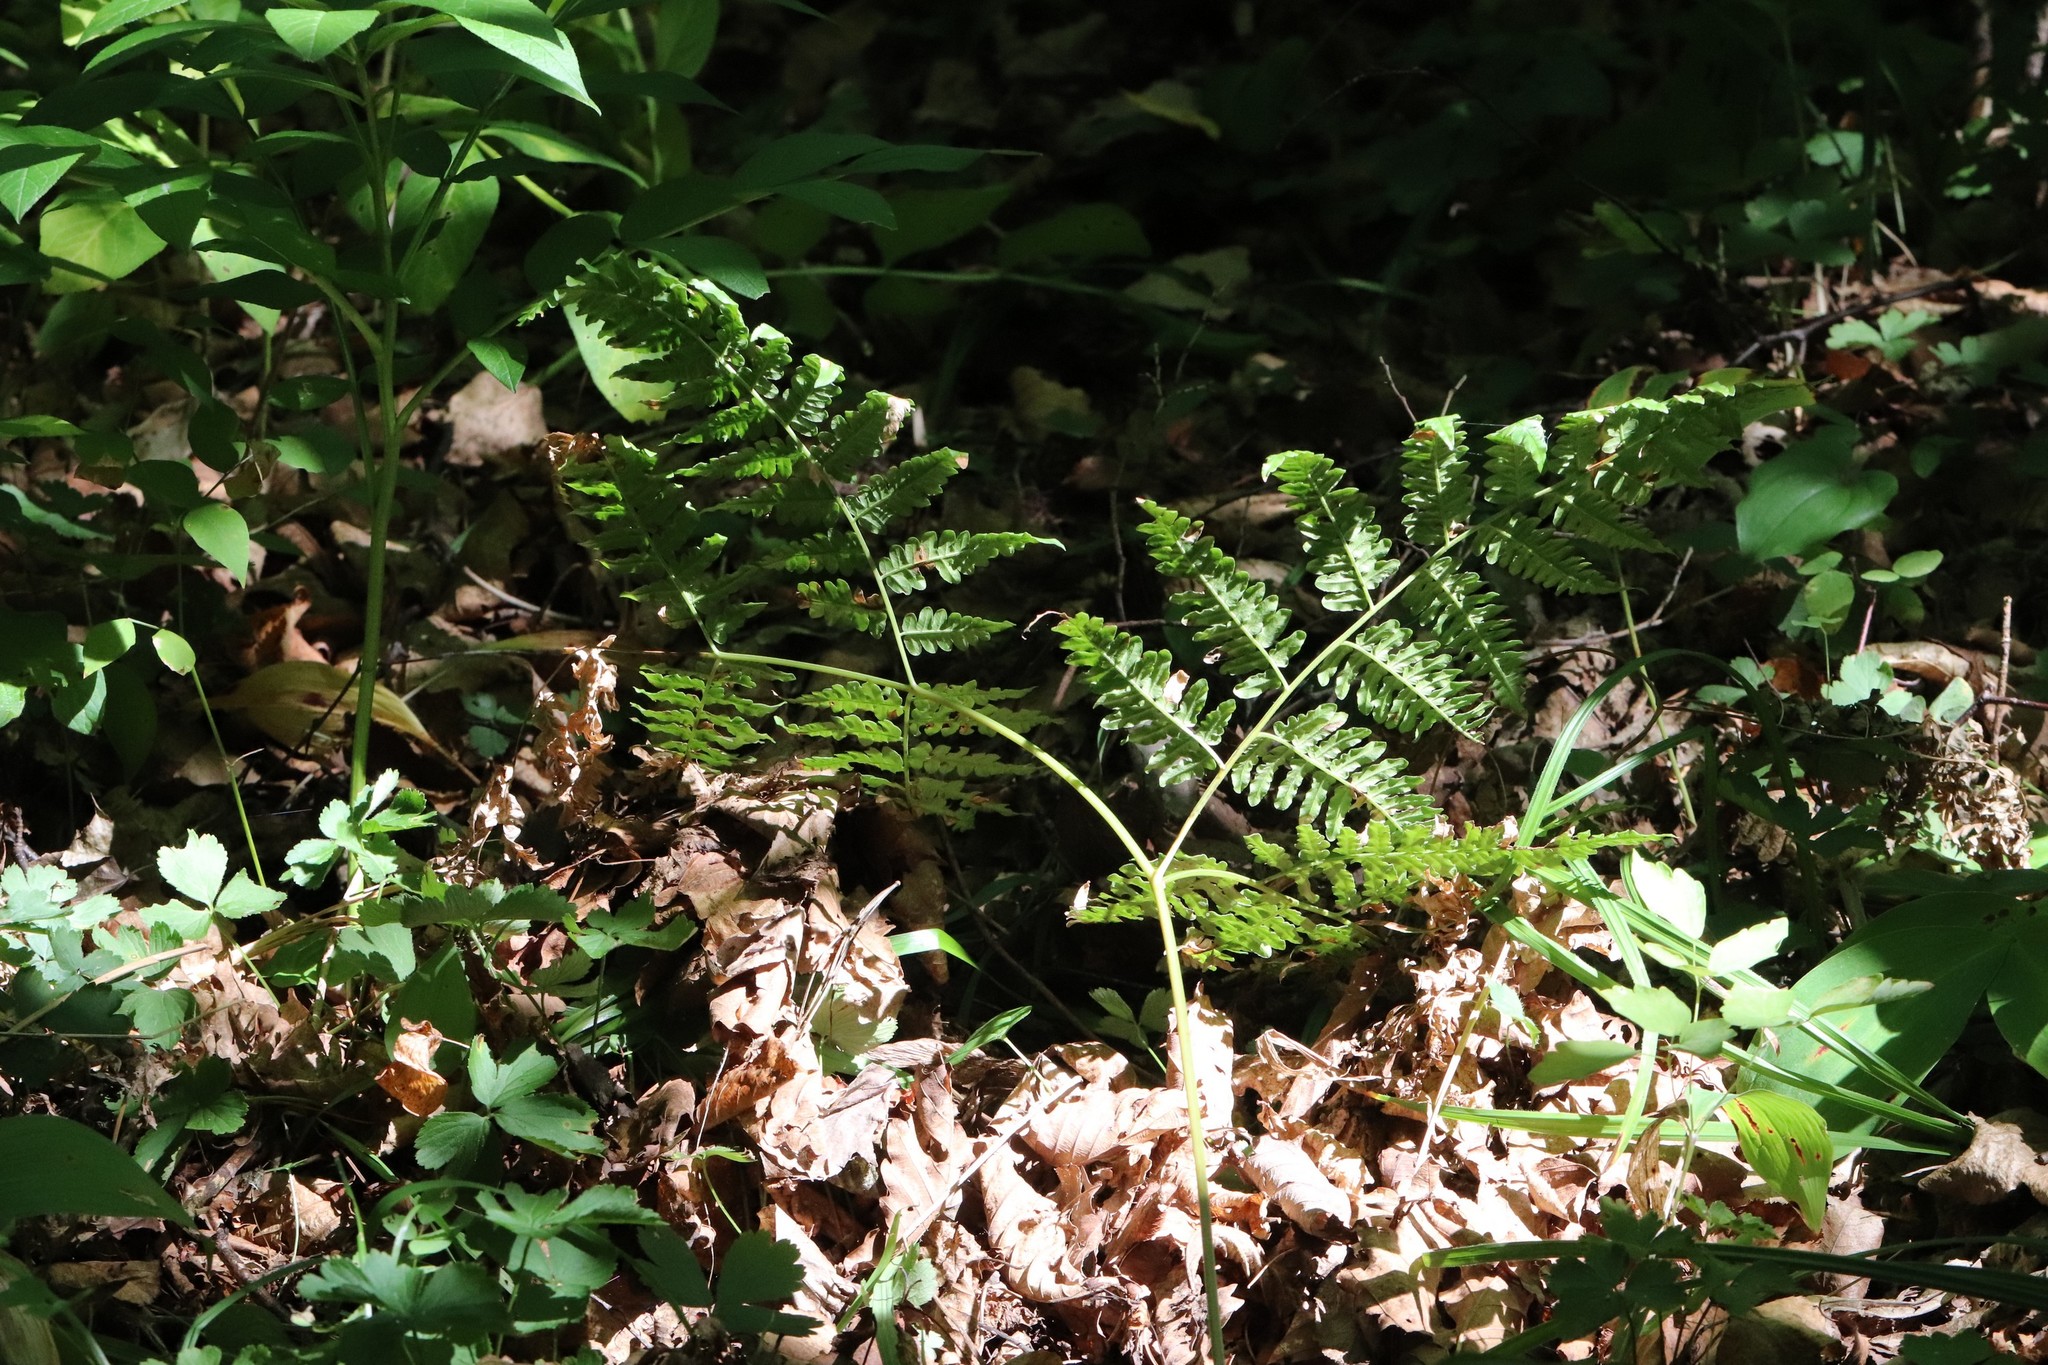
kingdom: Plantae
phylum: Tracheophyta
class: Polypodiopsida
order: Polypodiales
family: Dennstaedtiaceae
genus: Pteridium
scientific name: Pteridium aquilinum
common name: Bracken
